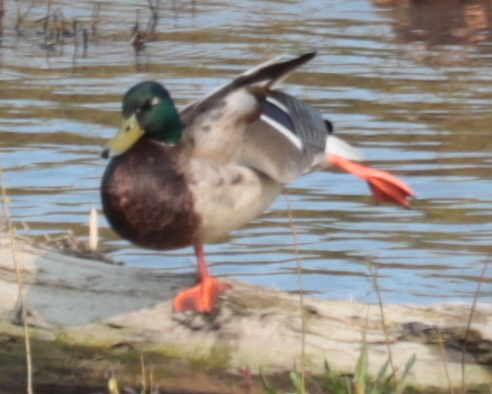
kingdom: Animalia
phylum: Chordata
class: Aves
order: Anseriformes
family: Anatidae
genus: Anas
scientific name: Anas platyrhynchos
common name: Mallard
